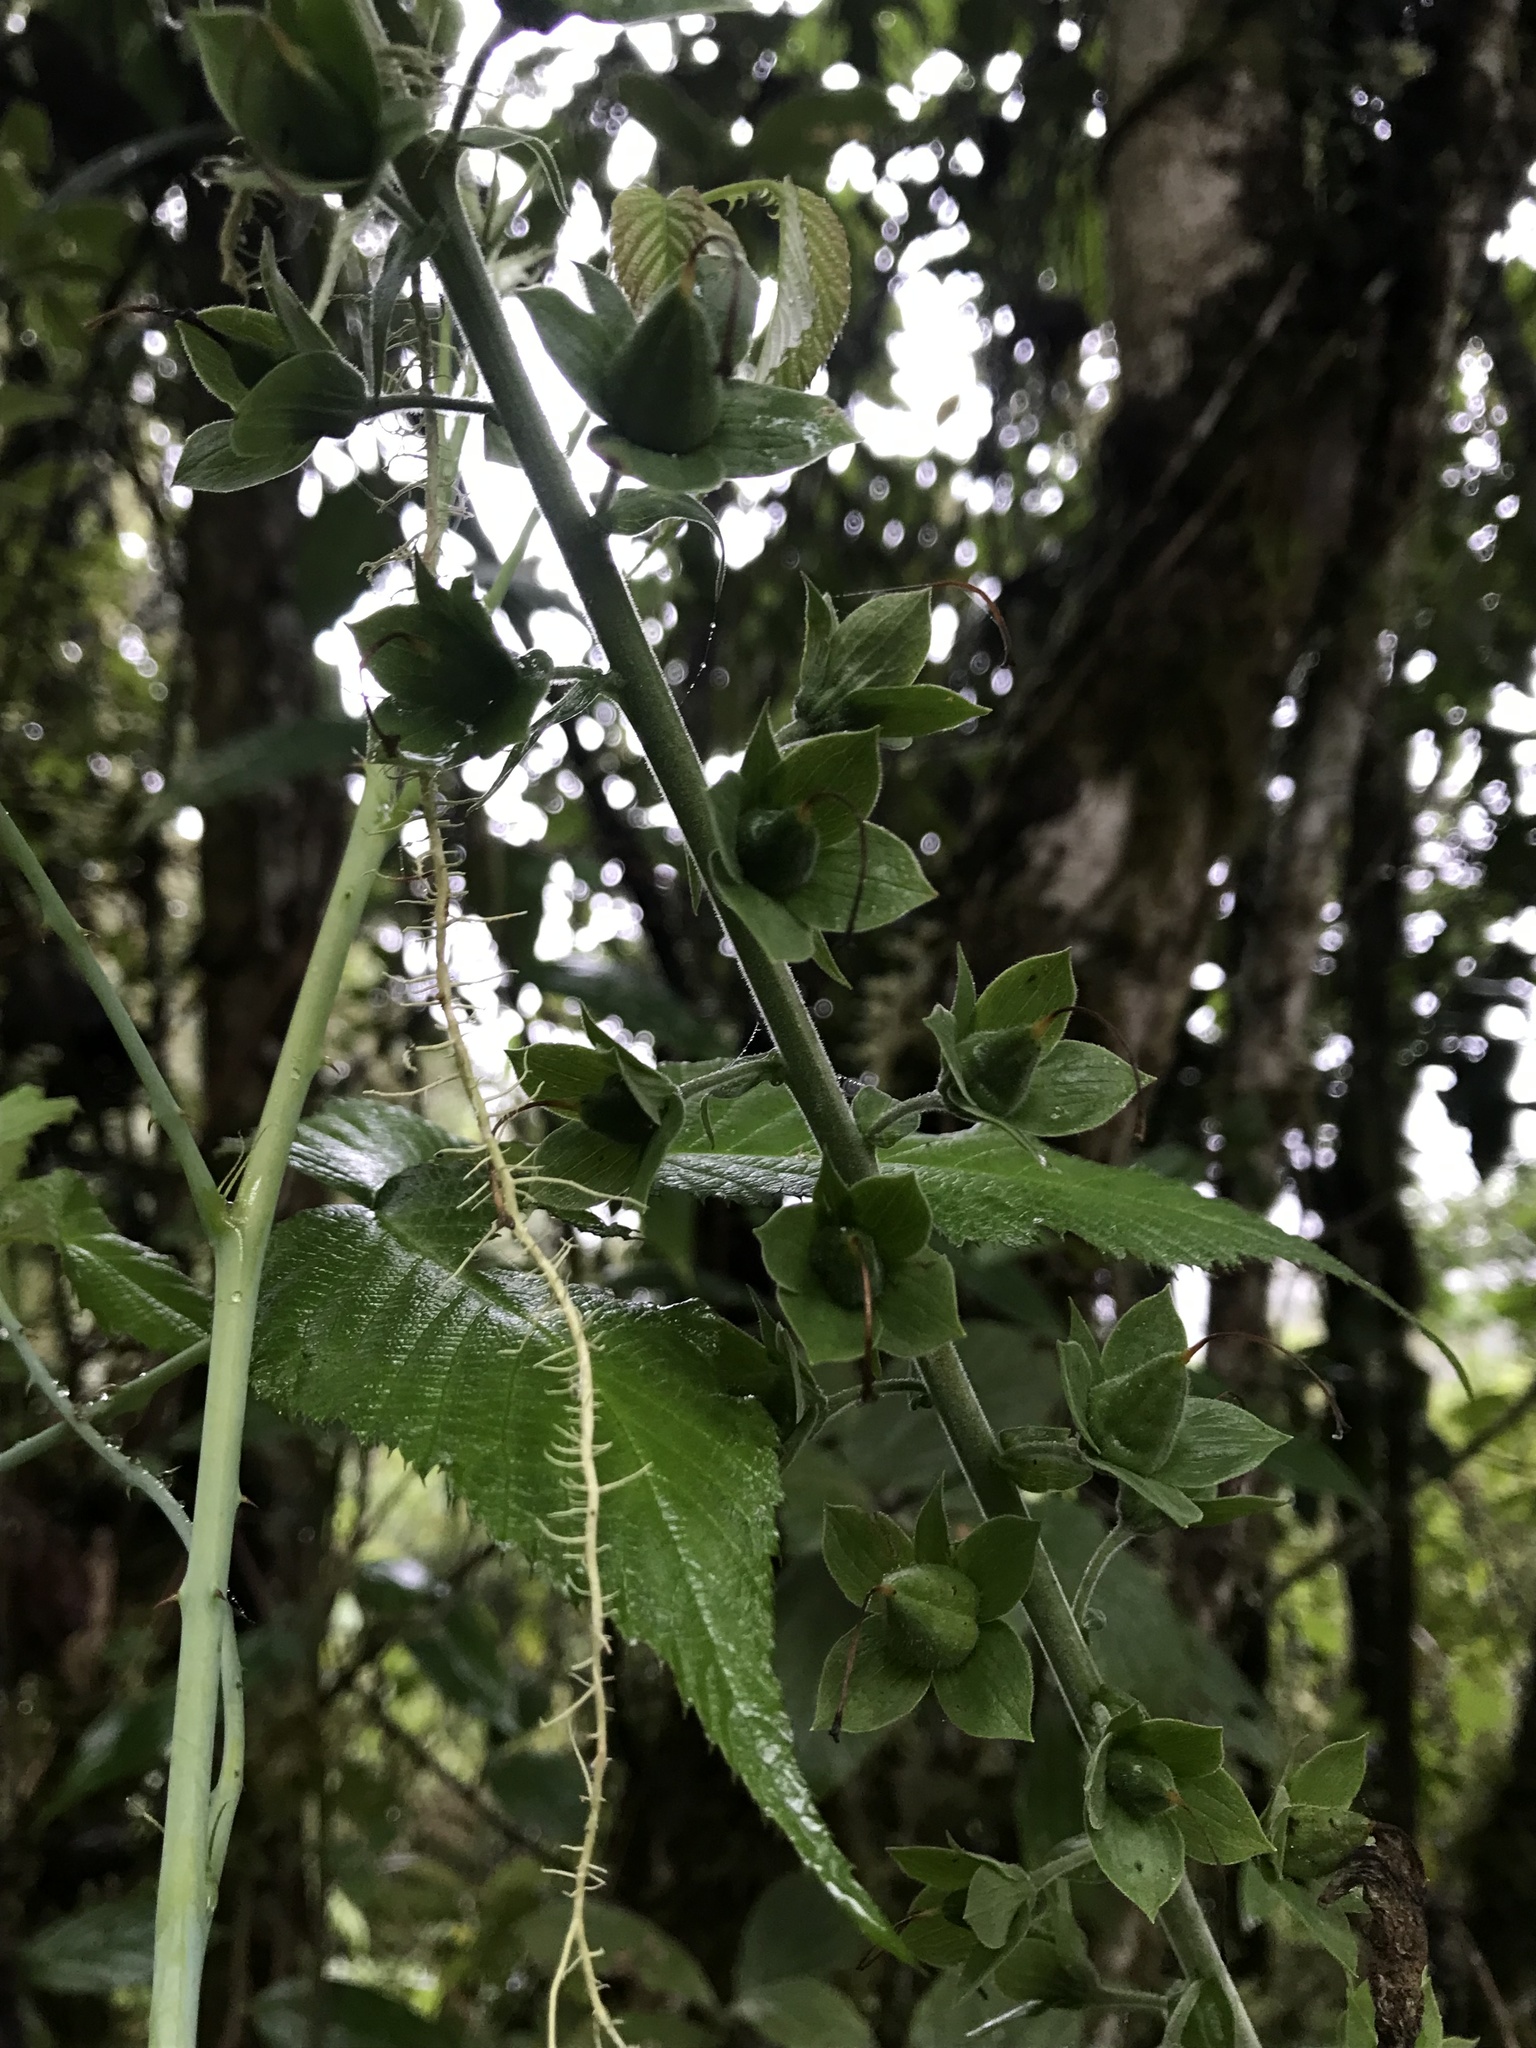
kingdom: Plantae
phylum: Tracheophyta
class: Magnoliopsida
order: Lamiales
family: Plantaginaceae
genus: Digitalis
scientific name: Digitalis purpurea
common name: Foxglove
